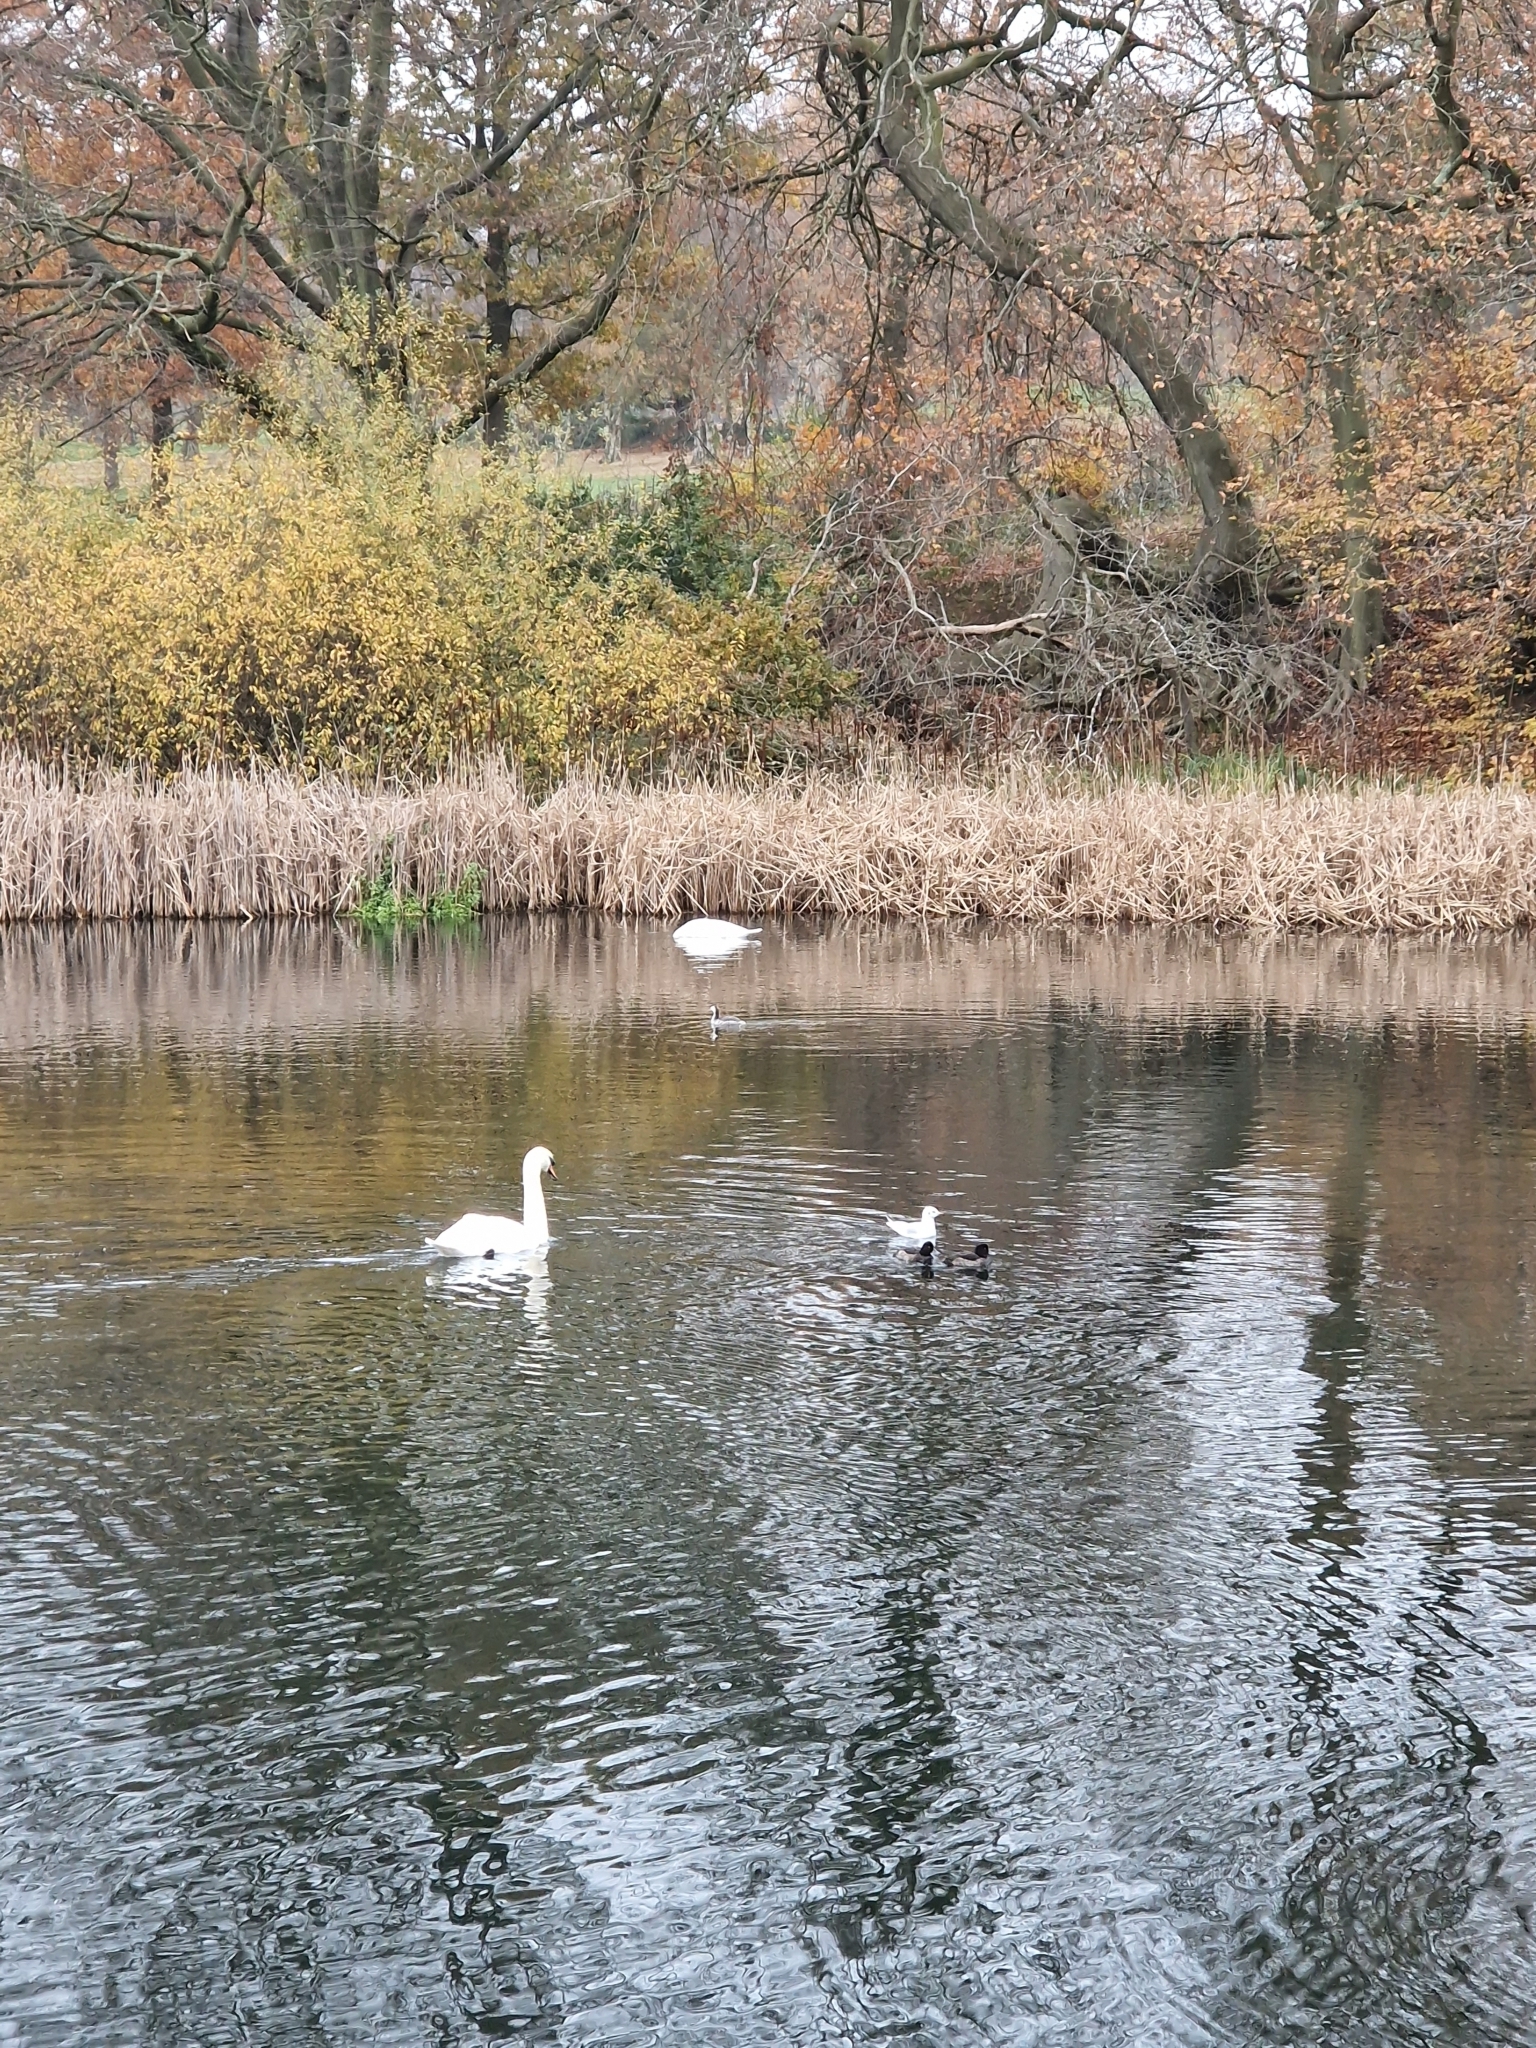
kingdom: Animalia
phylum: Chordata
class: Aves
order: Podicipediformes
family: Podicipedidae
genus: Podiceps
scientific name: Podiceps cristatus
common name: Great crested grebe
